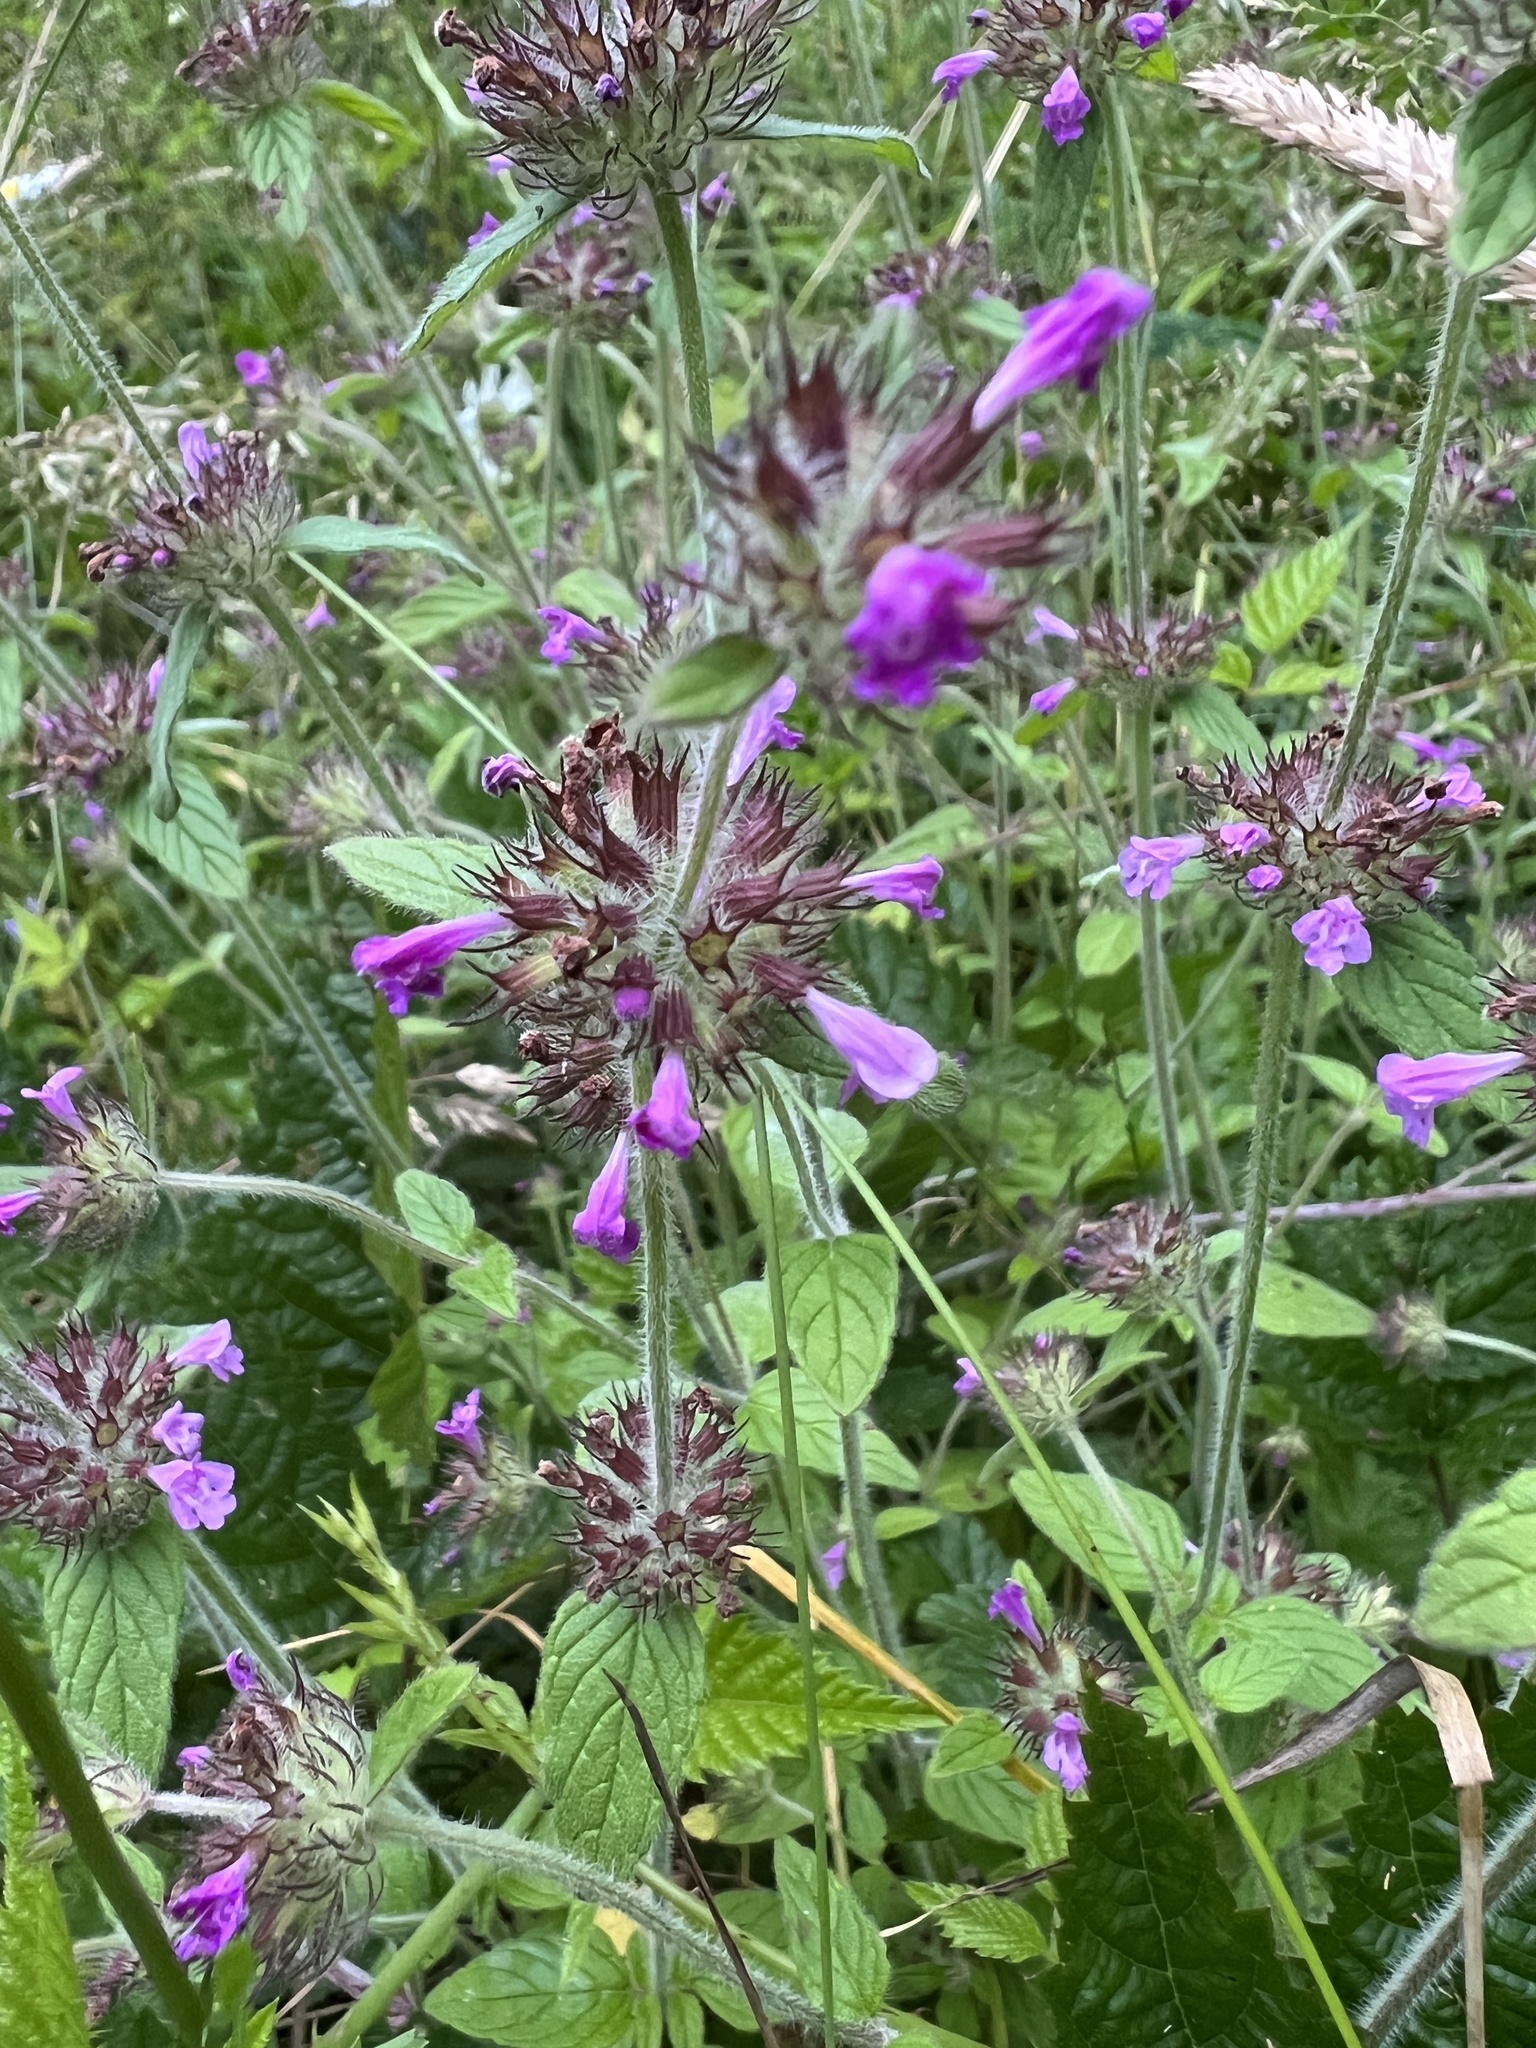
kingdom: Plantae
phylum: Tracheophyta
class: Magnoliopsida
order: Lamiales
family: Lamiaceae
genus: Clinopodium
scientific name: Clinopodium vulgare
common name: Wild basil
